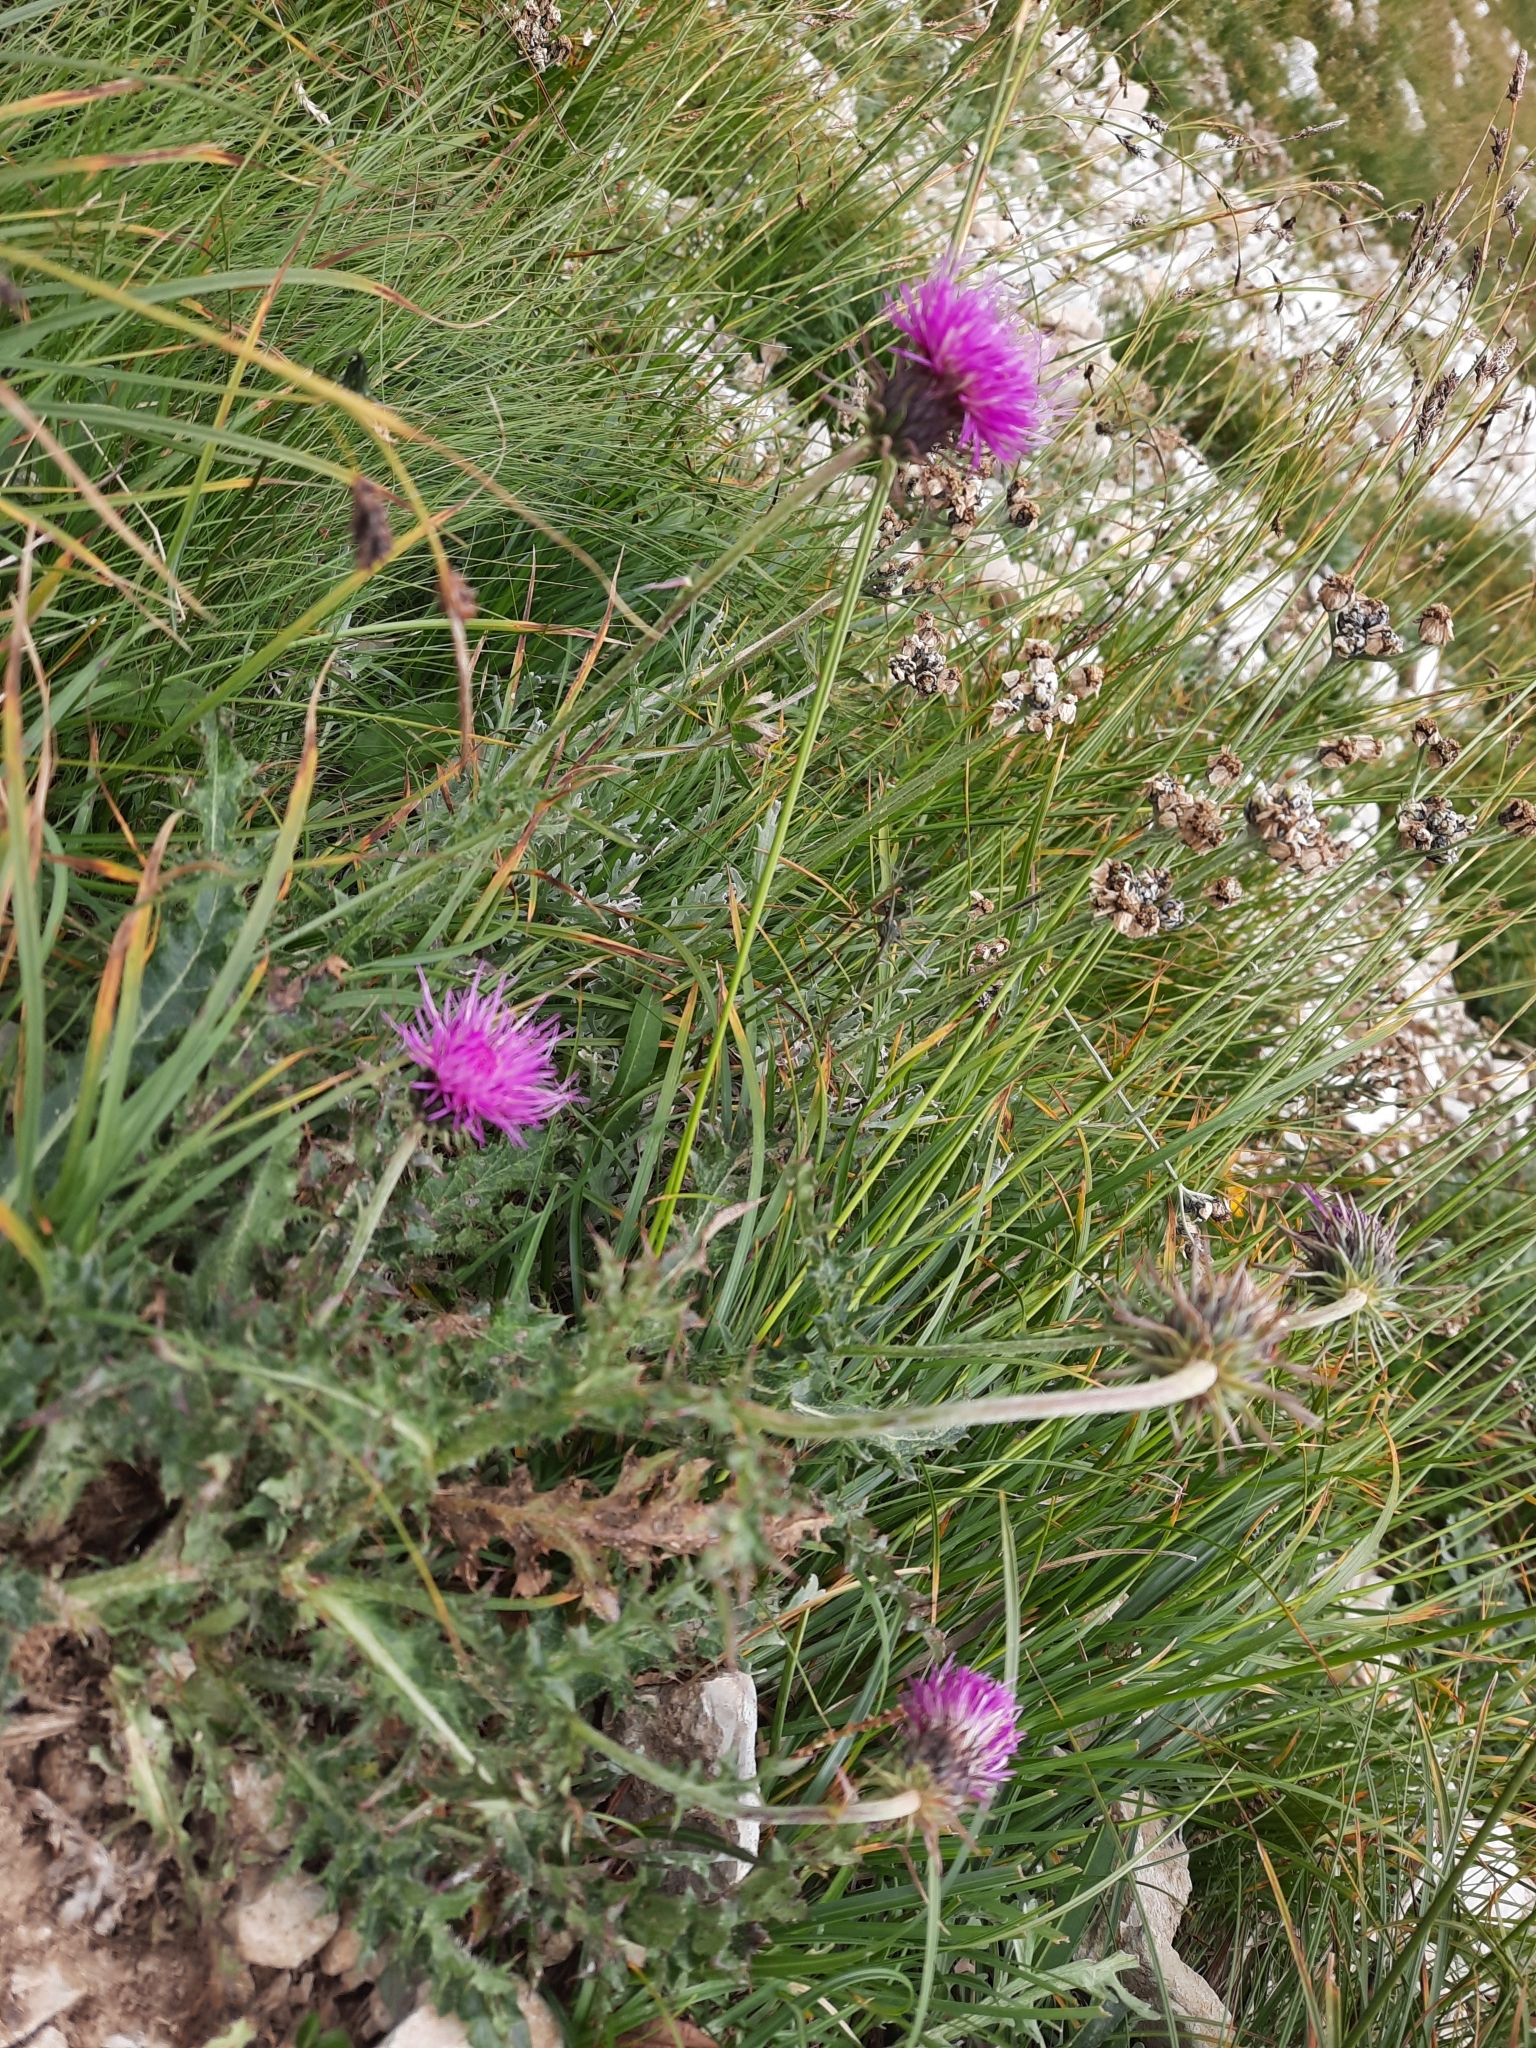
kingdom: Plantae
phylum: Tracheophyta
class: Magnoliopsida
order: Asterales
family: Asteraceae
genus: Carduus
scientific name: Carduus defloratus
